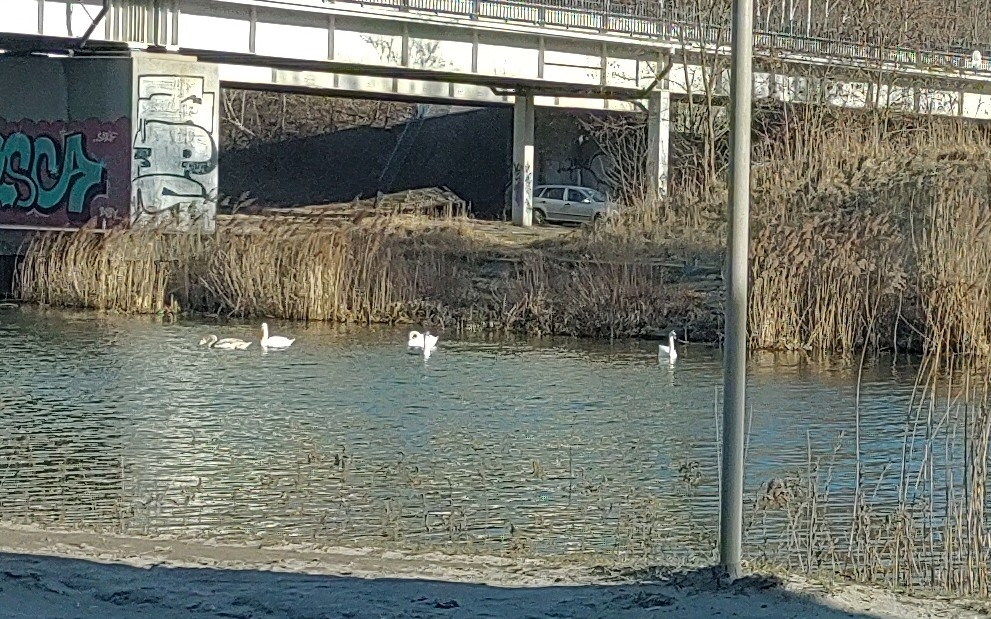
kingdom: Animalia
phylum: Chordata
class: Aves
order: Anseriformes
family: Anatidae
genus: Cygnus
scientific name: Cygnus olor
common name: Mute swan
